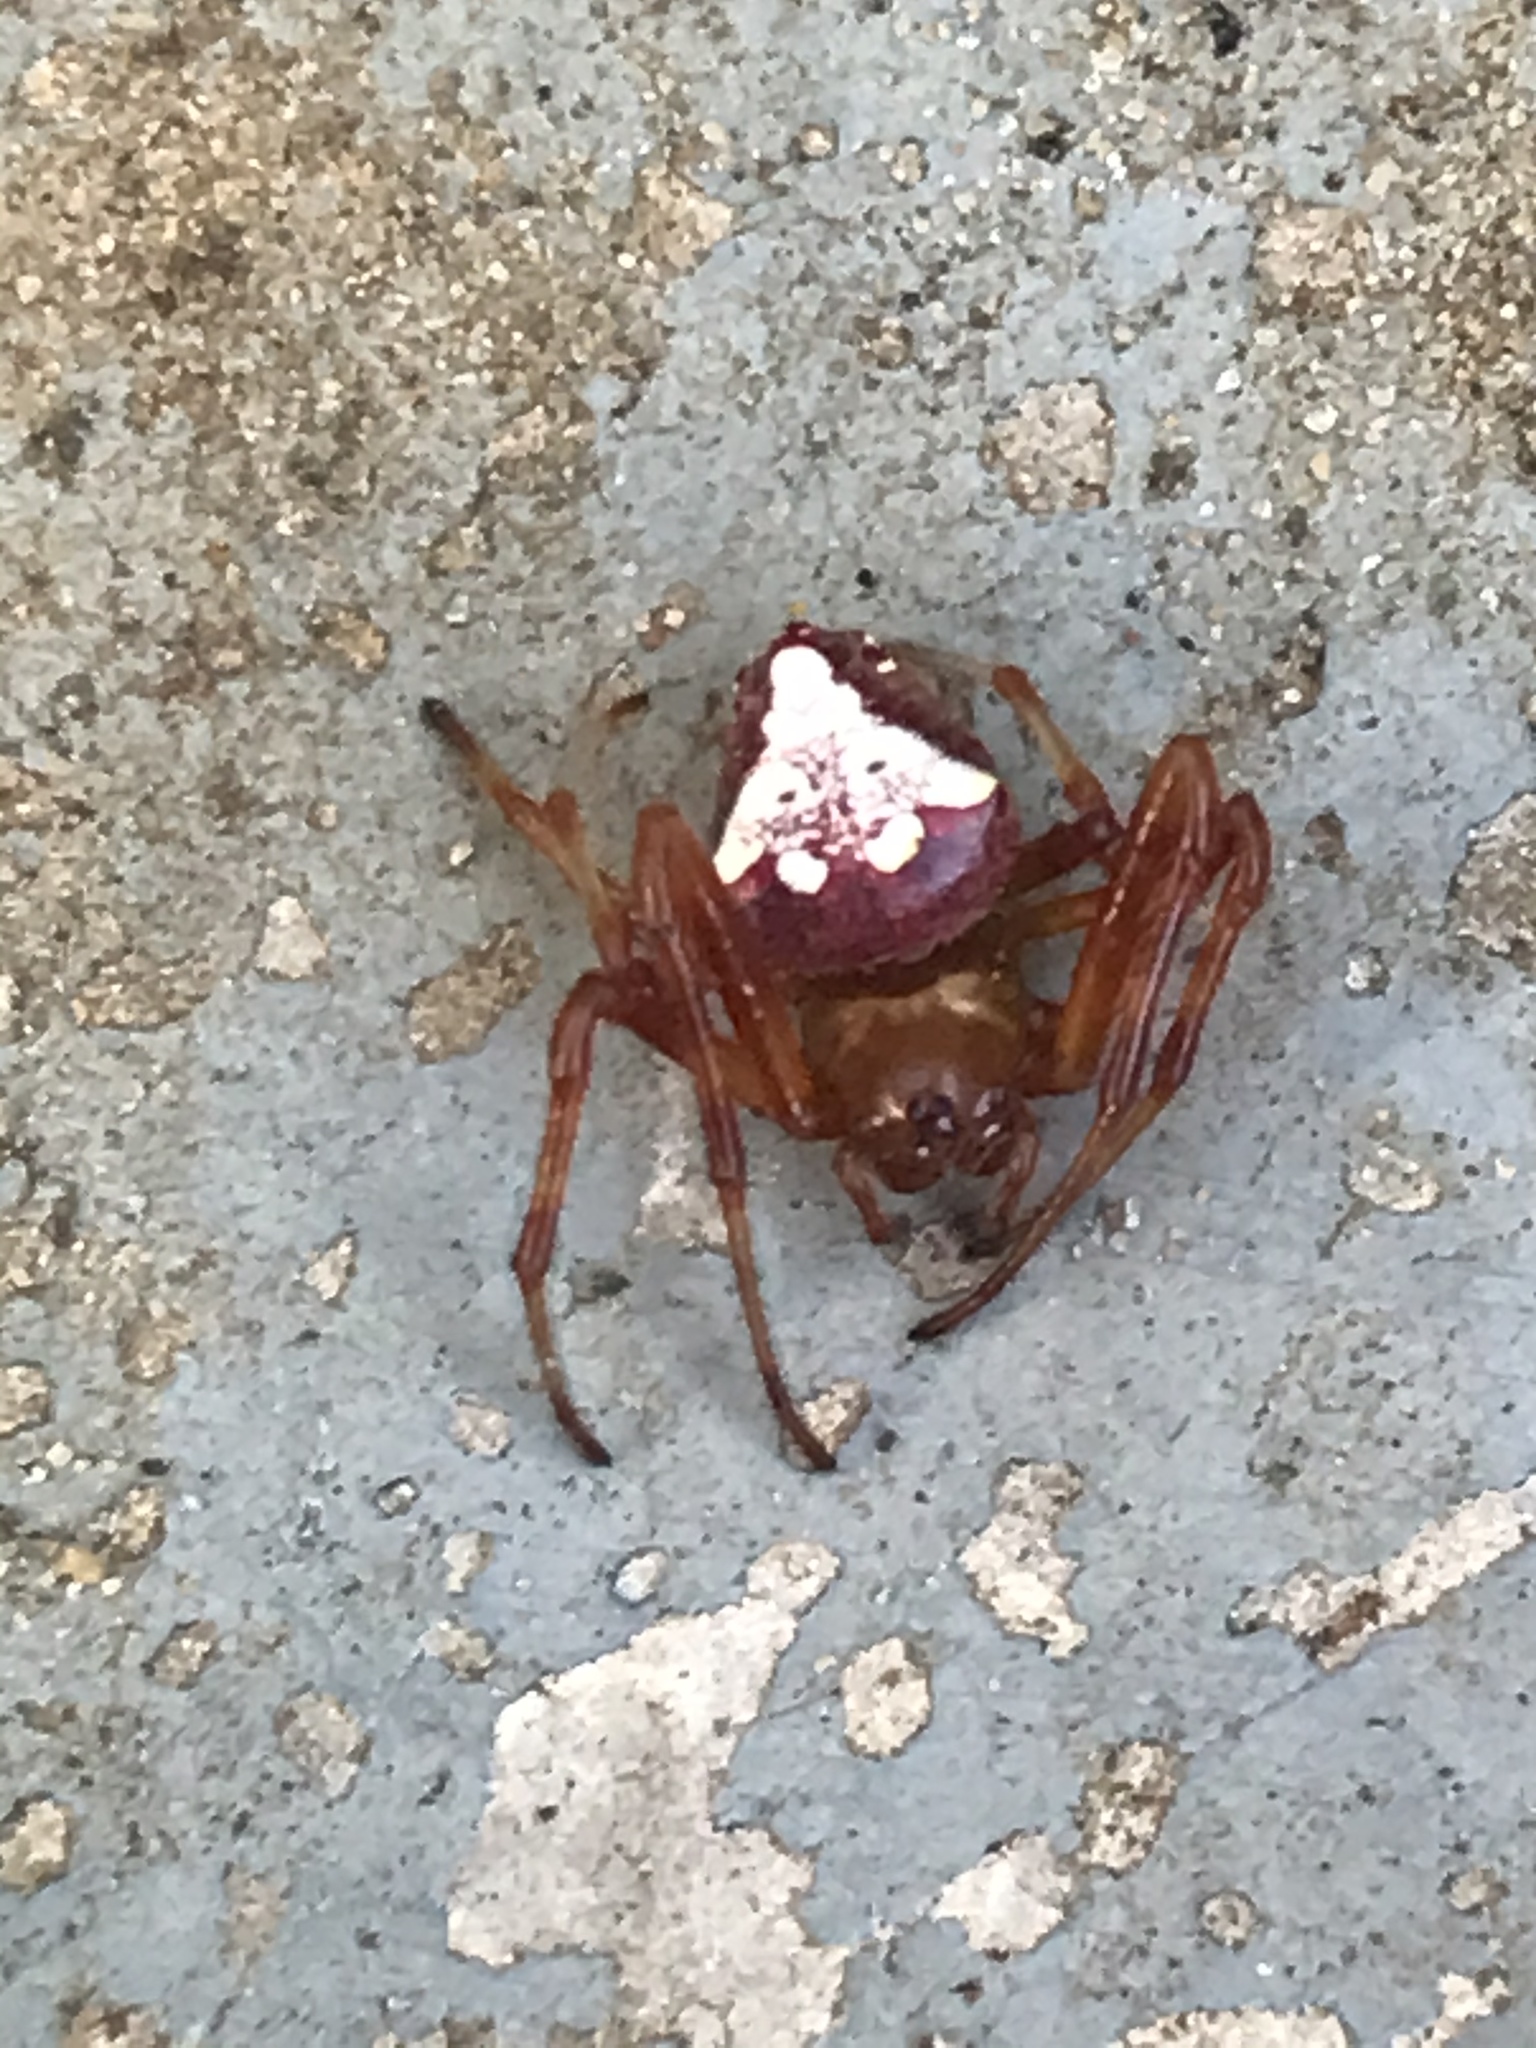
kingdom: Animalia
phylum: Arthropoda
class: Arachnida
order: Araneae
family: Araneidae
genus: Verrucosa
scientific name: Verrucosa arenata
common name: Orb weavers
